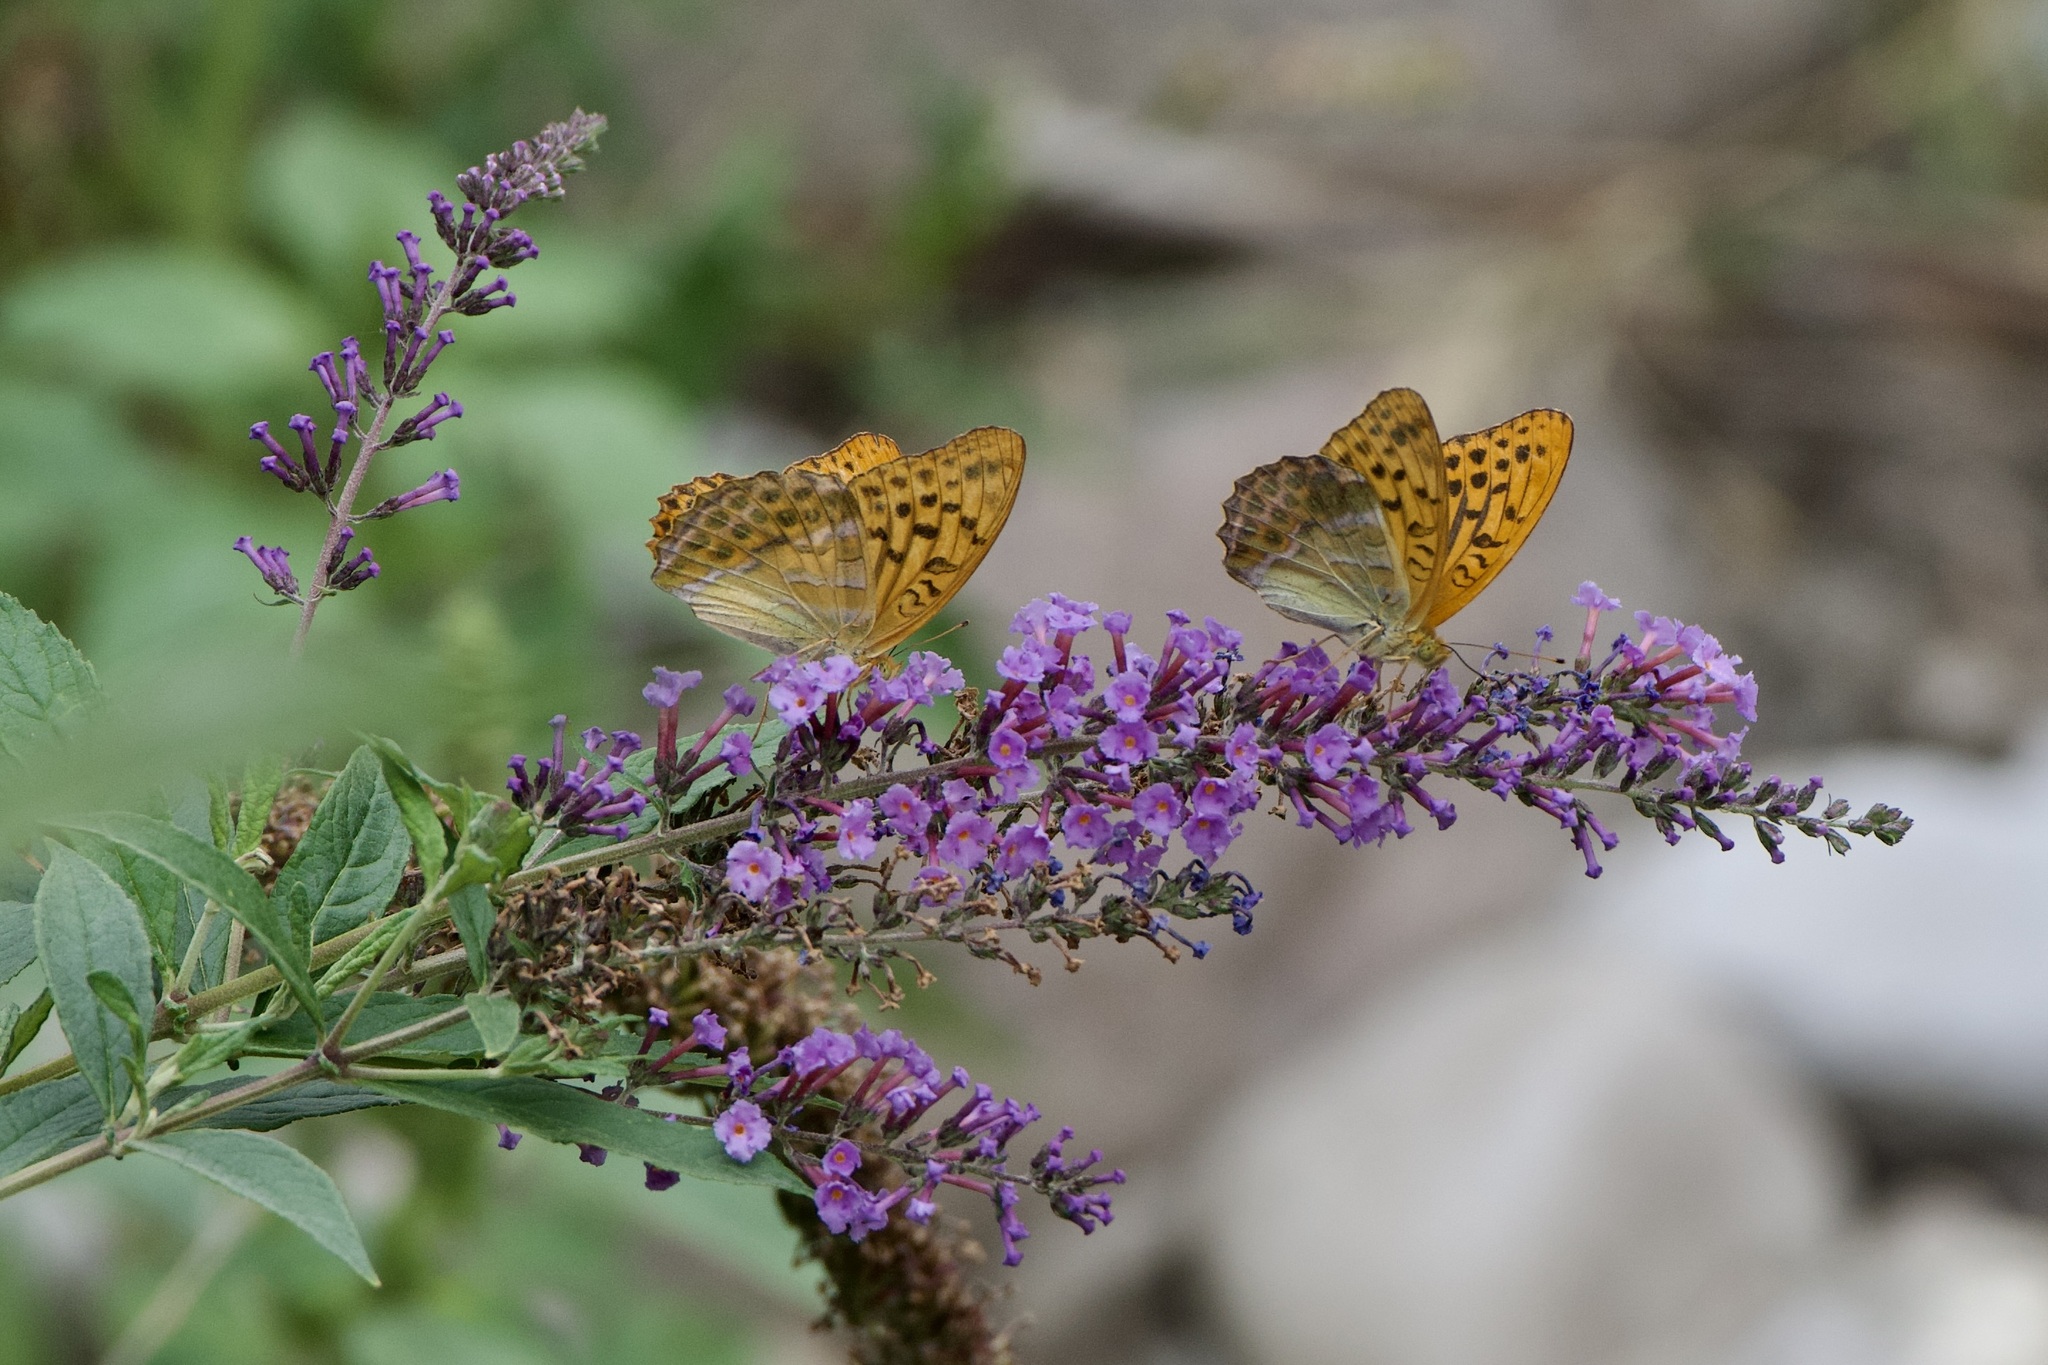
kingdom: Animalia
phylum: Arthropoda
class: Insecta
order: Lepidoptera
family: Nymphalidae
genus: Argynnis
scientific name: Argynnis paphia
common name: Silver-washed fritillary
